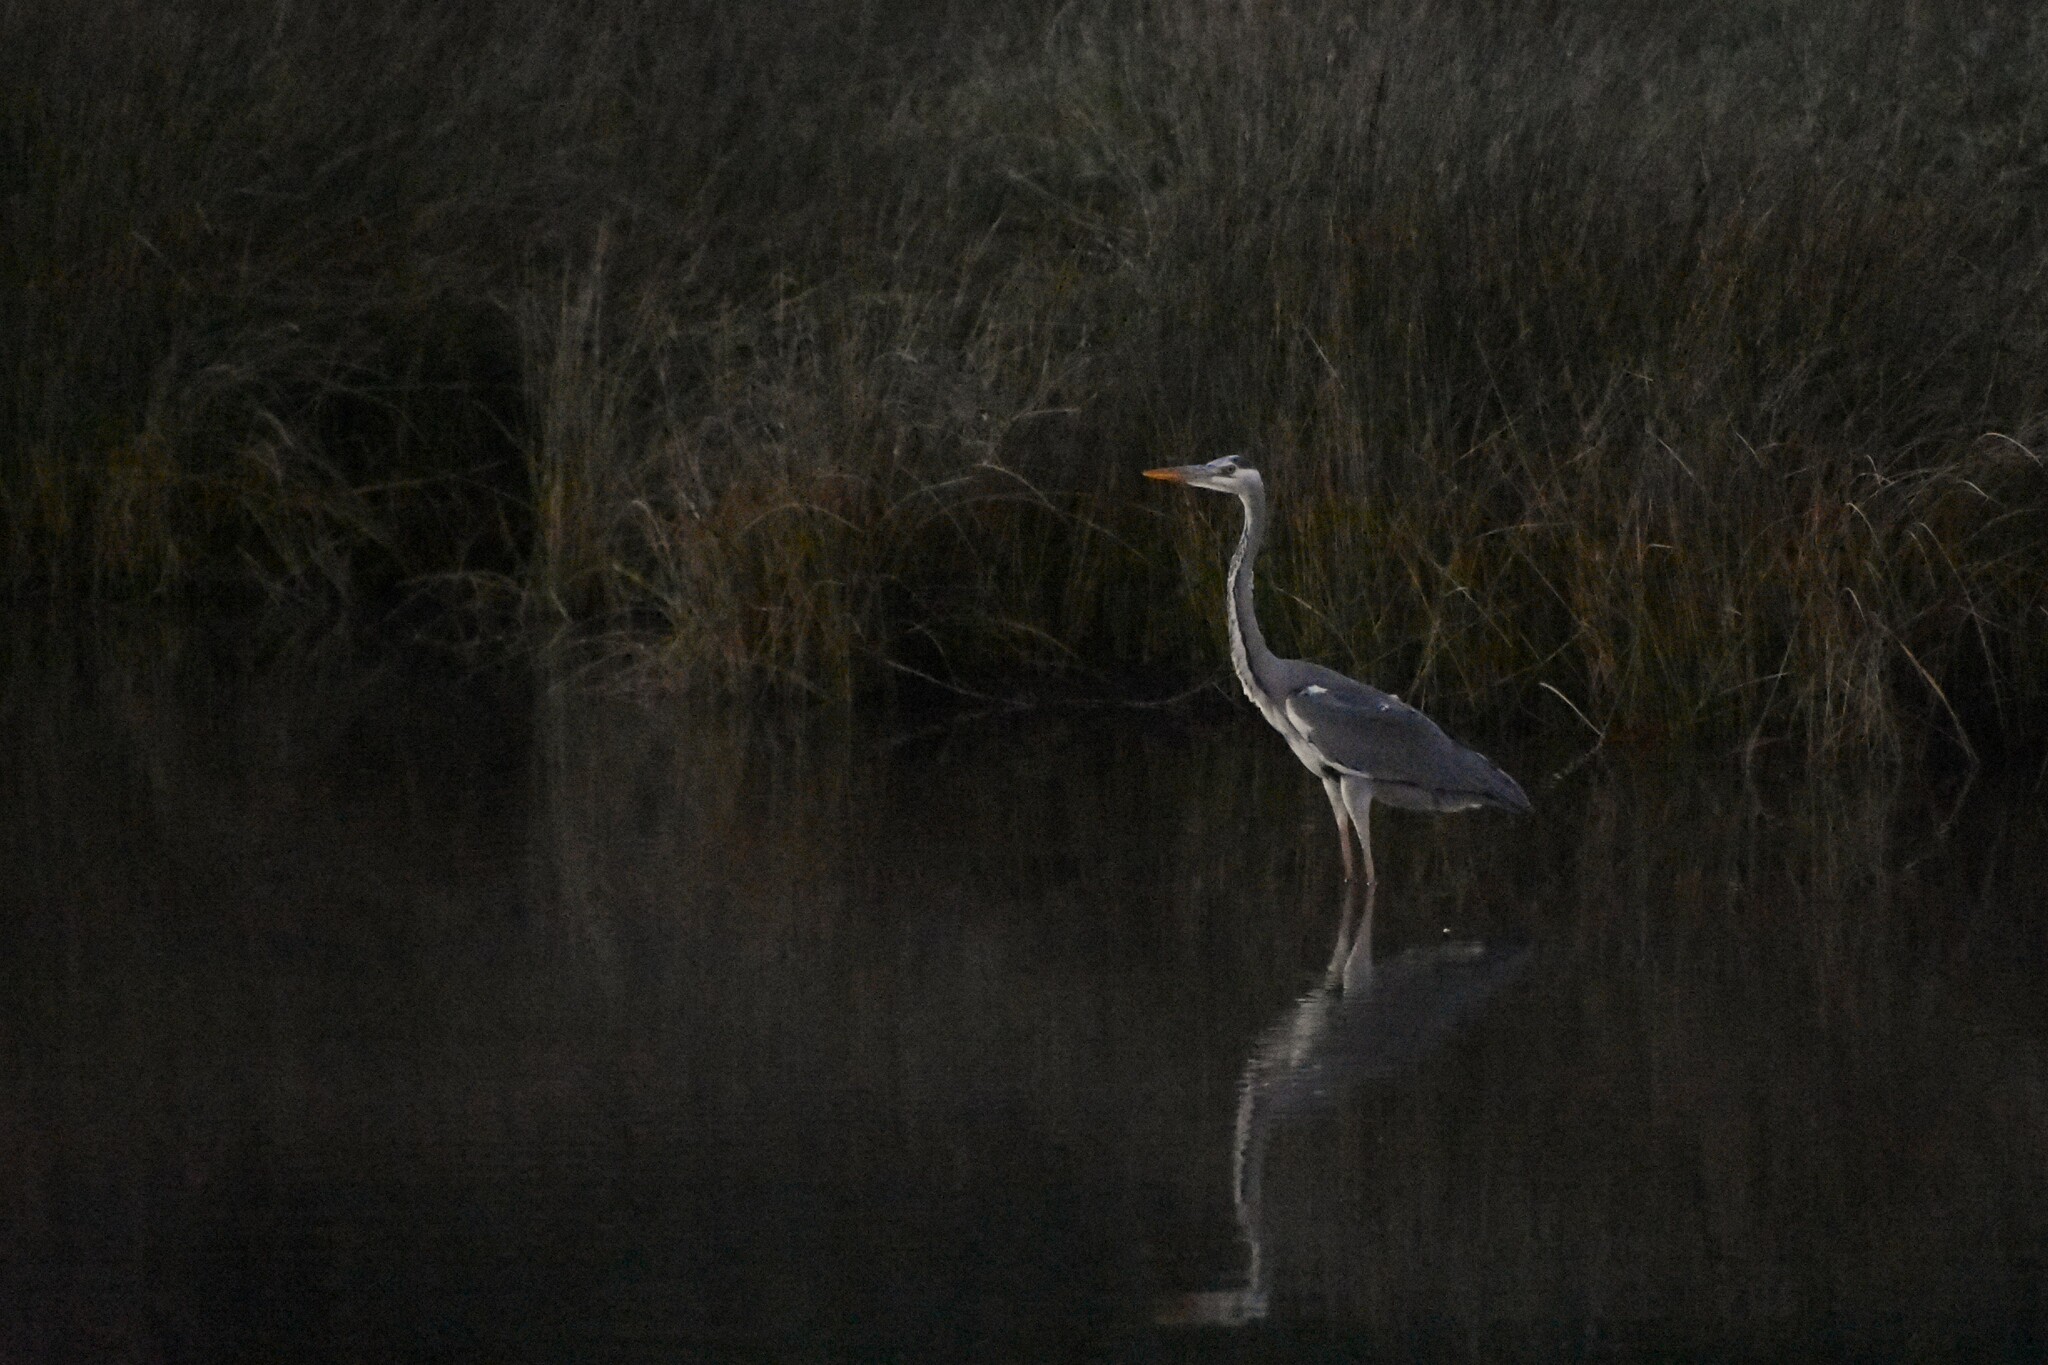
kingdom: Animalia
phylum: Chordata
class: Aves
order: Pelecaniformes
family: Ardeidae
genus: Ardea
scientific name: Ardea cinerea
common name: Grey heron
